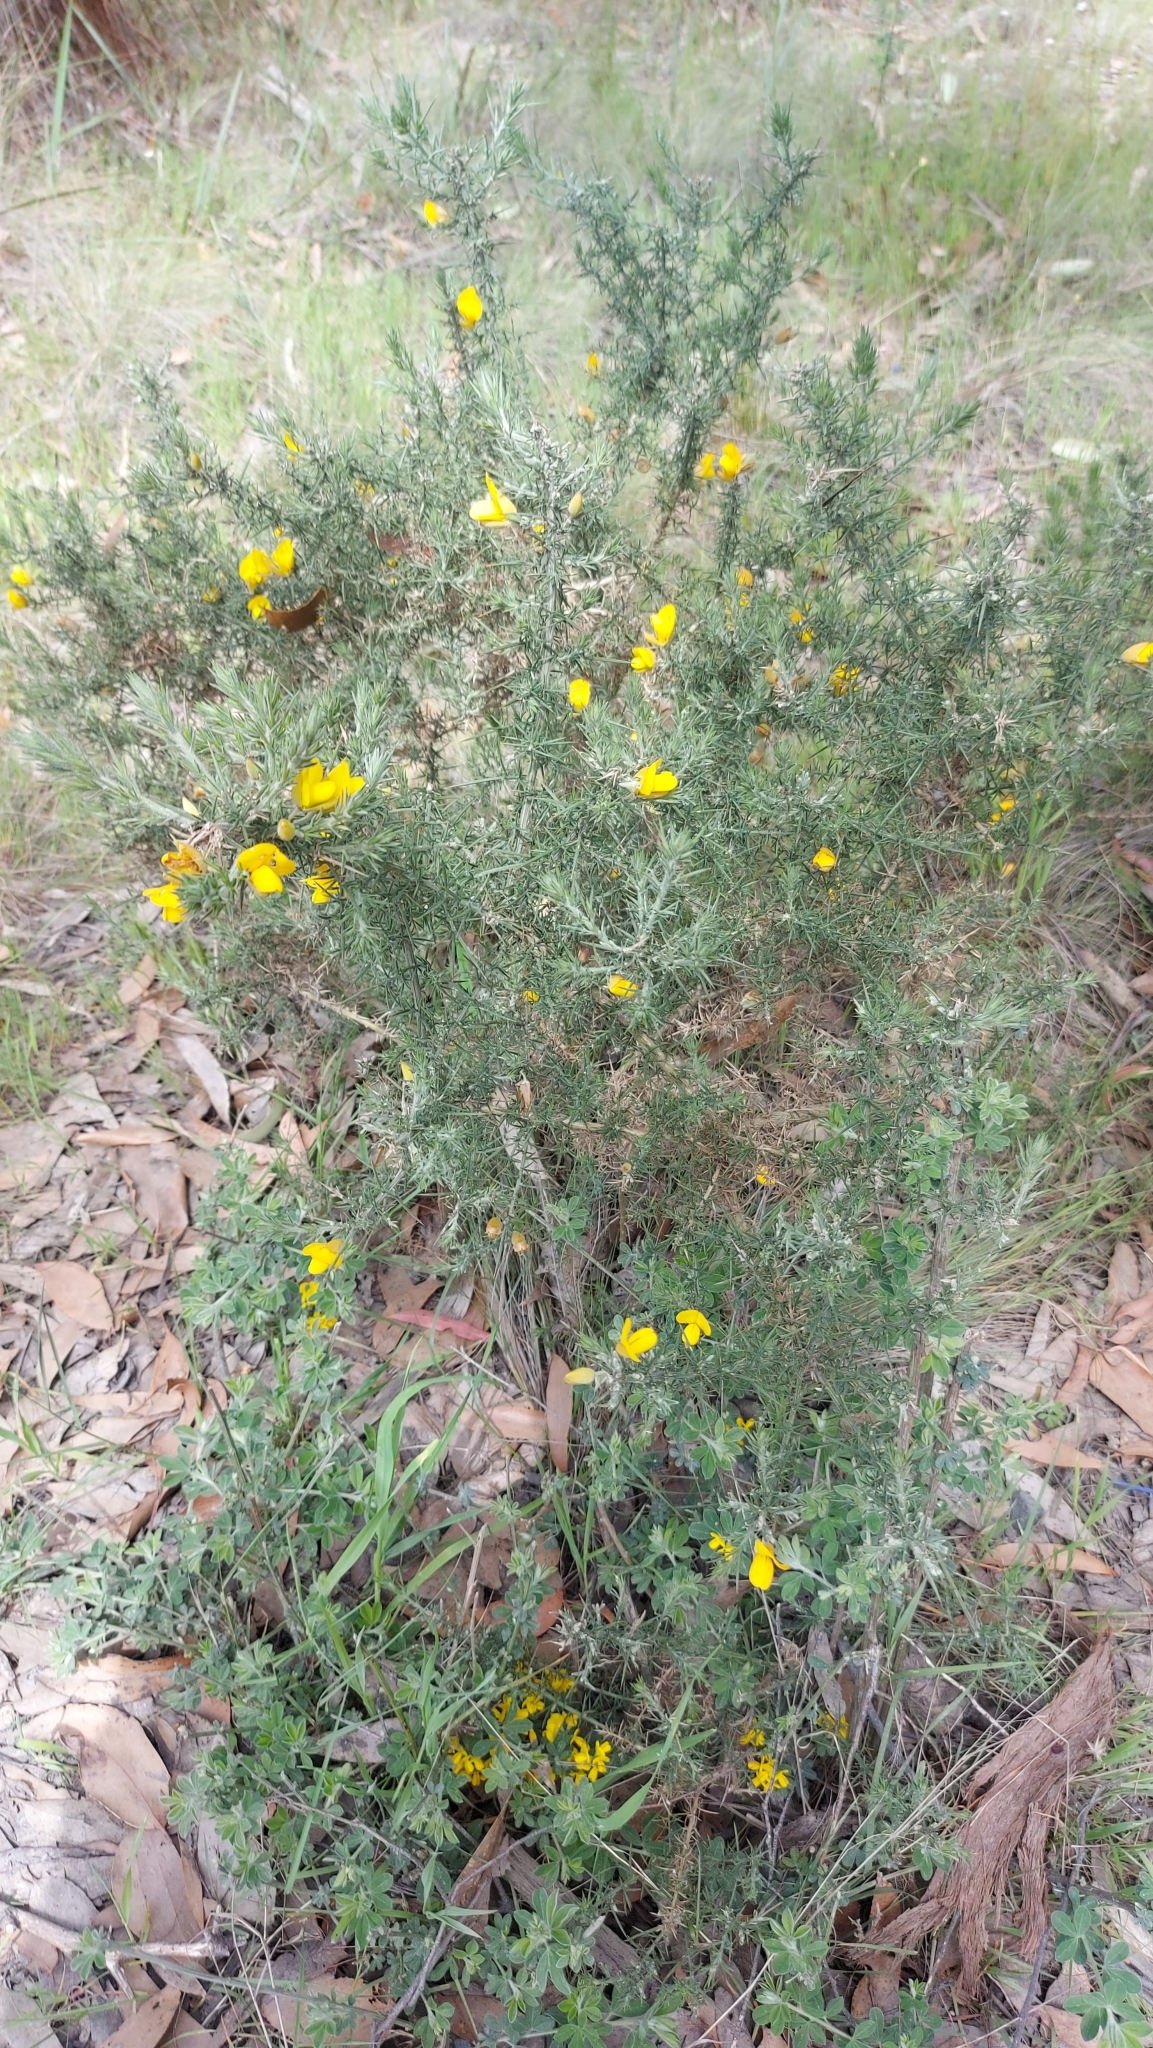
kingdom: Plantae
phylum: Tracheophyta
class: Magnoliopsida
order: Fabales
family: Fabaceae
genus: Ulex
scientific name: Ulex europaeus
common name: Common gorse
